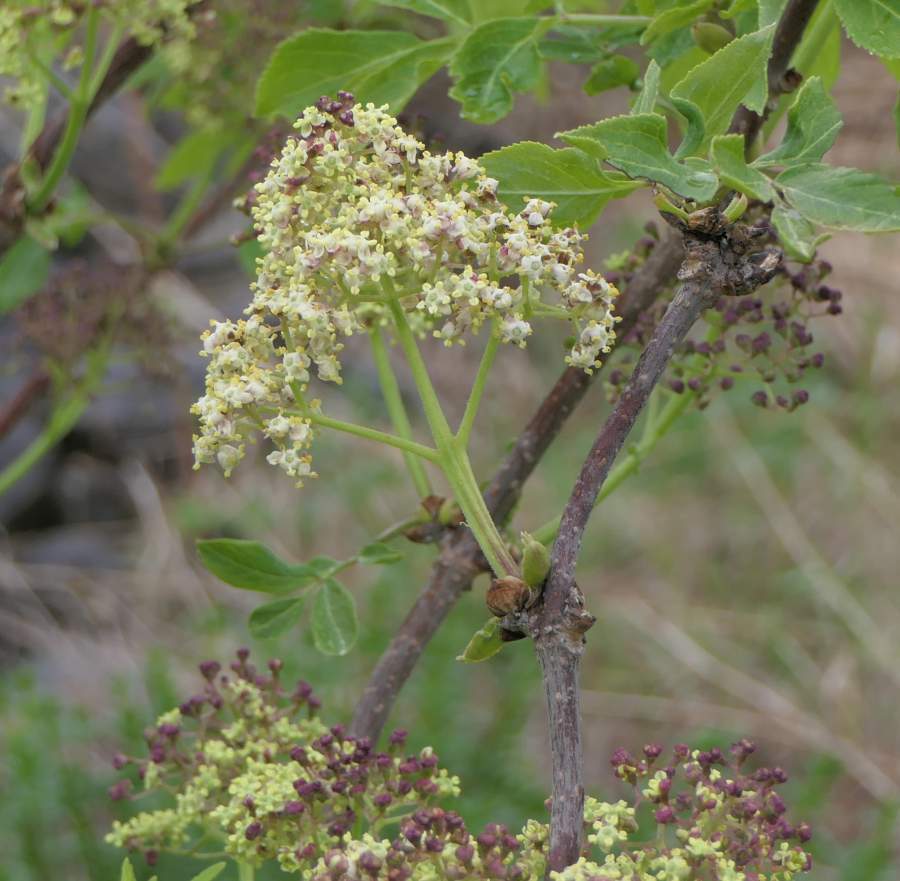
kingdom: Plantae
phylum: Tracheophyta
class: Magnoliopsida
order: Dipsacales
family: Viburnaceae
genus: Sambucus
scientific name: Sambucus racemosa
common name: Red-berried elder
